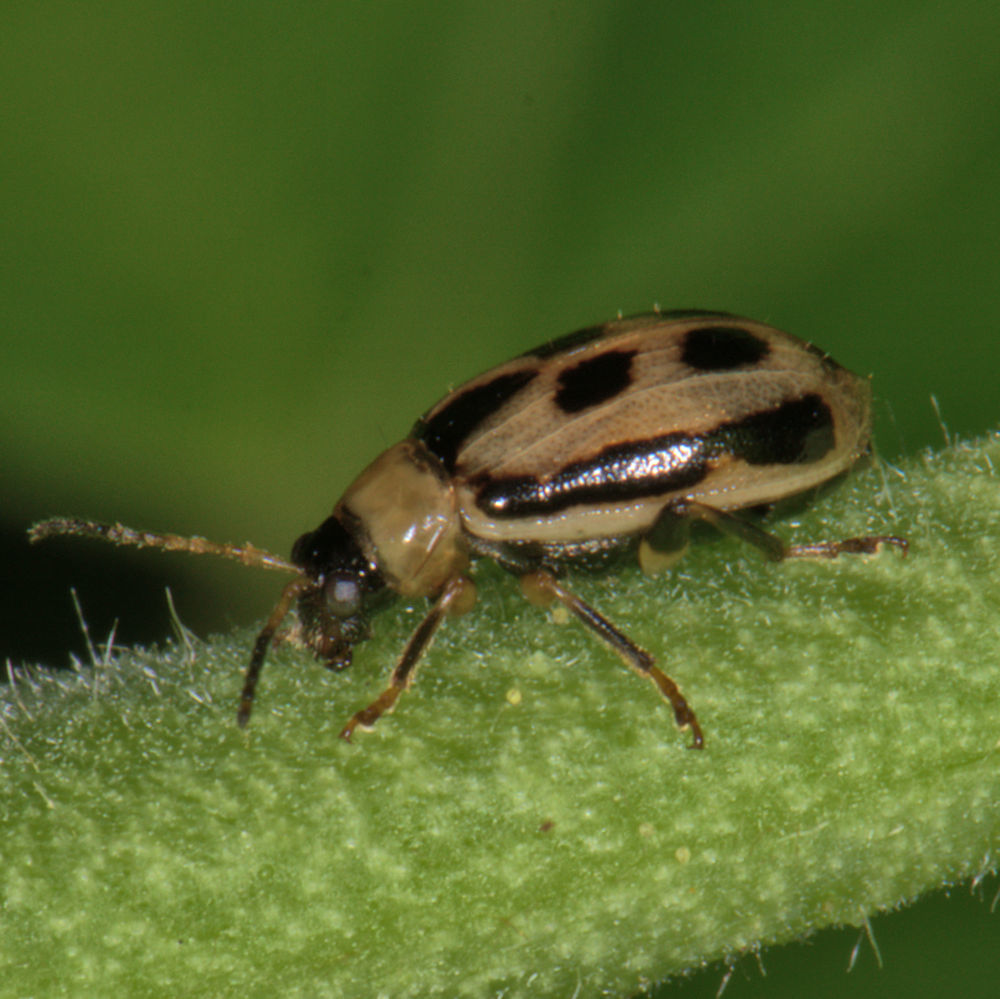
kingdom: Animalia
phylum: Arthropoda
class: Insecta
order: Coleoptera
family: Chrysomelidae
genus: Cerotoma
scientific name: Cerotoma trifurcata
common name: Bean leaf beetle
